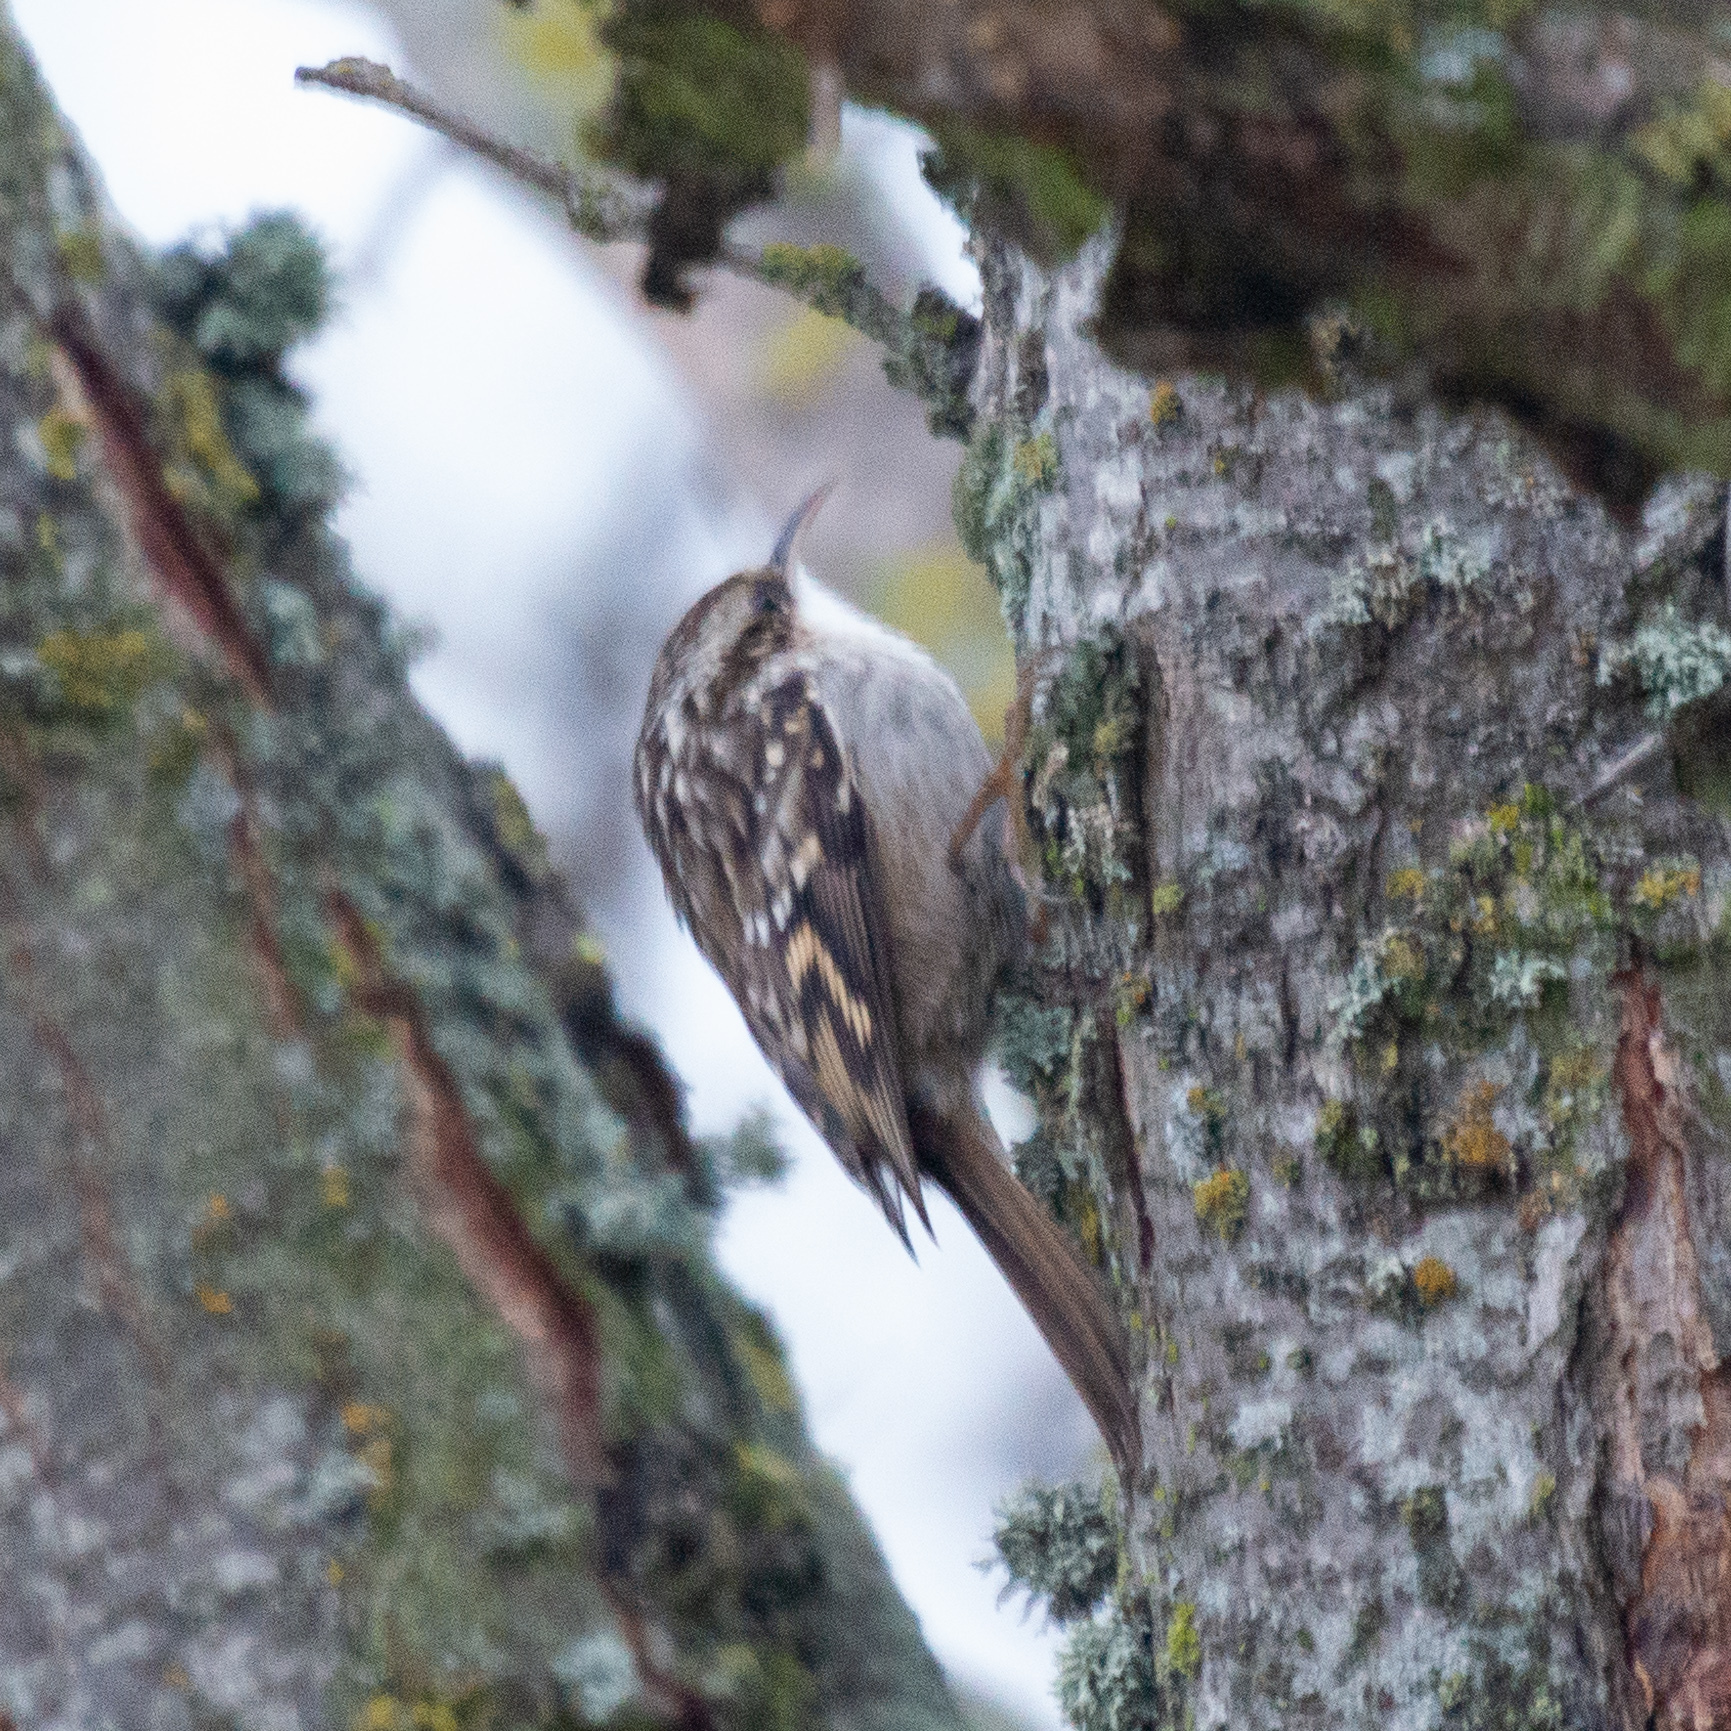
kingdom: Animalia
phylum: Chordata
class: Aves
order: Passeriformes
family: Certhiidae
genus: Certhia
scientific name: Certhia brachydactyla
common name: Short-toed treecreeper
